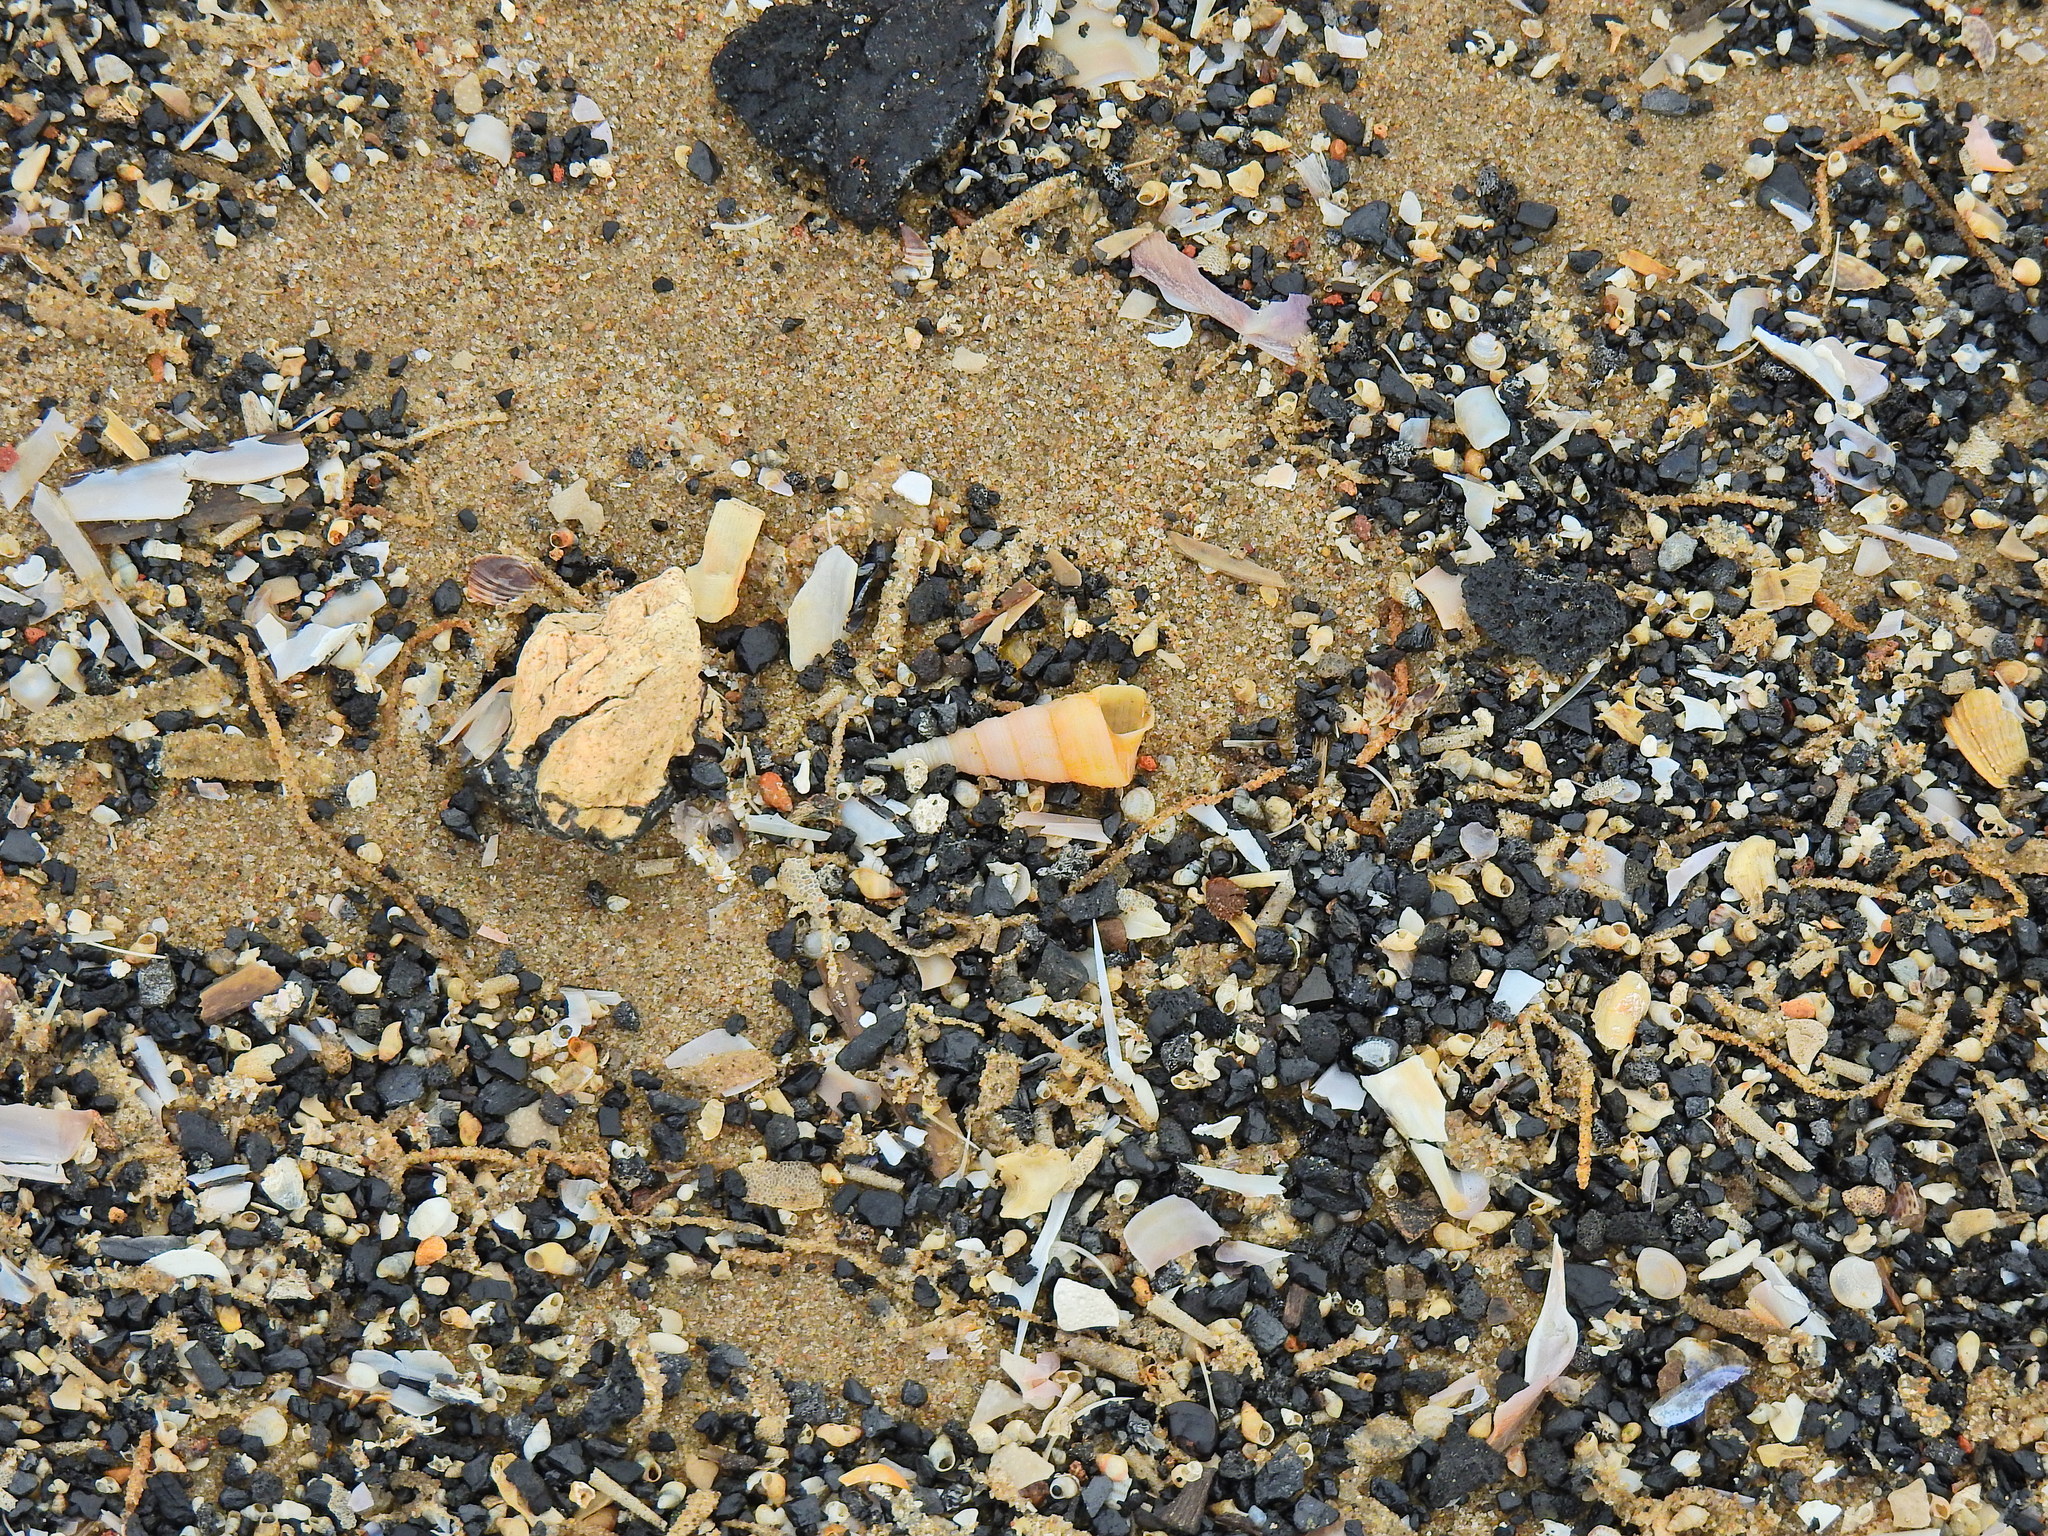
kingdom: Animalia
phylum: Mollusca
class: Gastropoda
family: Turritellidae
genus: Turritellinella
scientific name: Turritellinella tricarinata
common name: Auger shell
